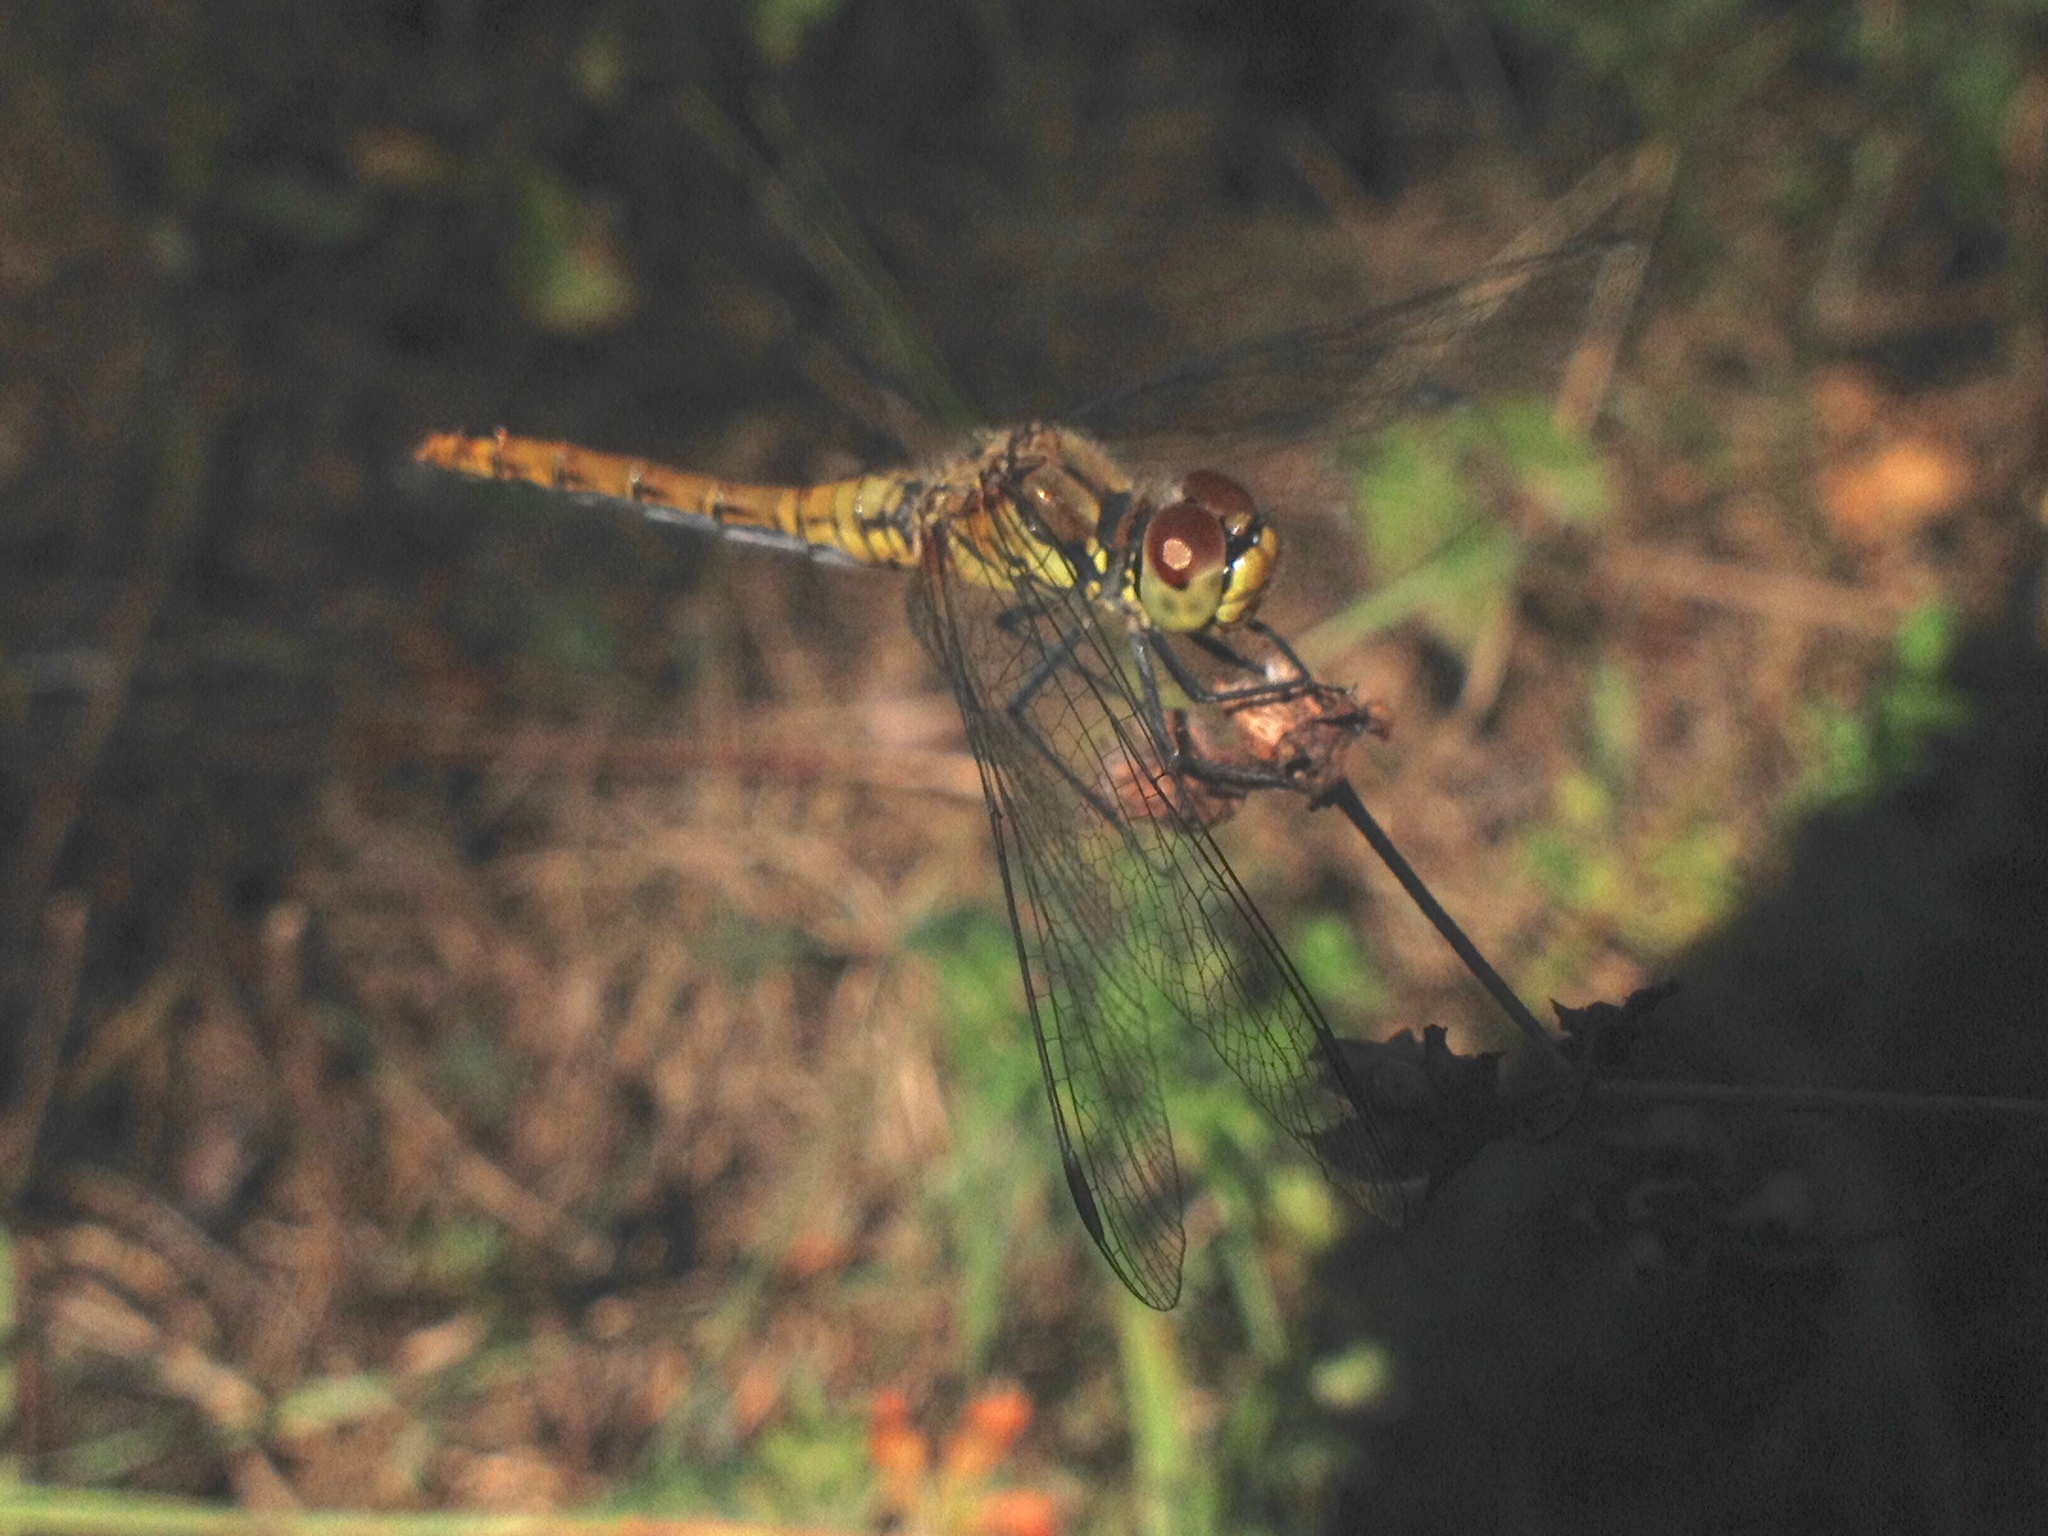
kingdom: Animalia
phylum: Arthropoda
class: Insecta
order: Odonata
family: Libellulidae
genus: Sympetrum
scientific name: Sympetrum sanguineum
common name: Ruddy darter
